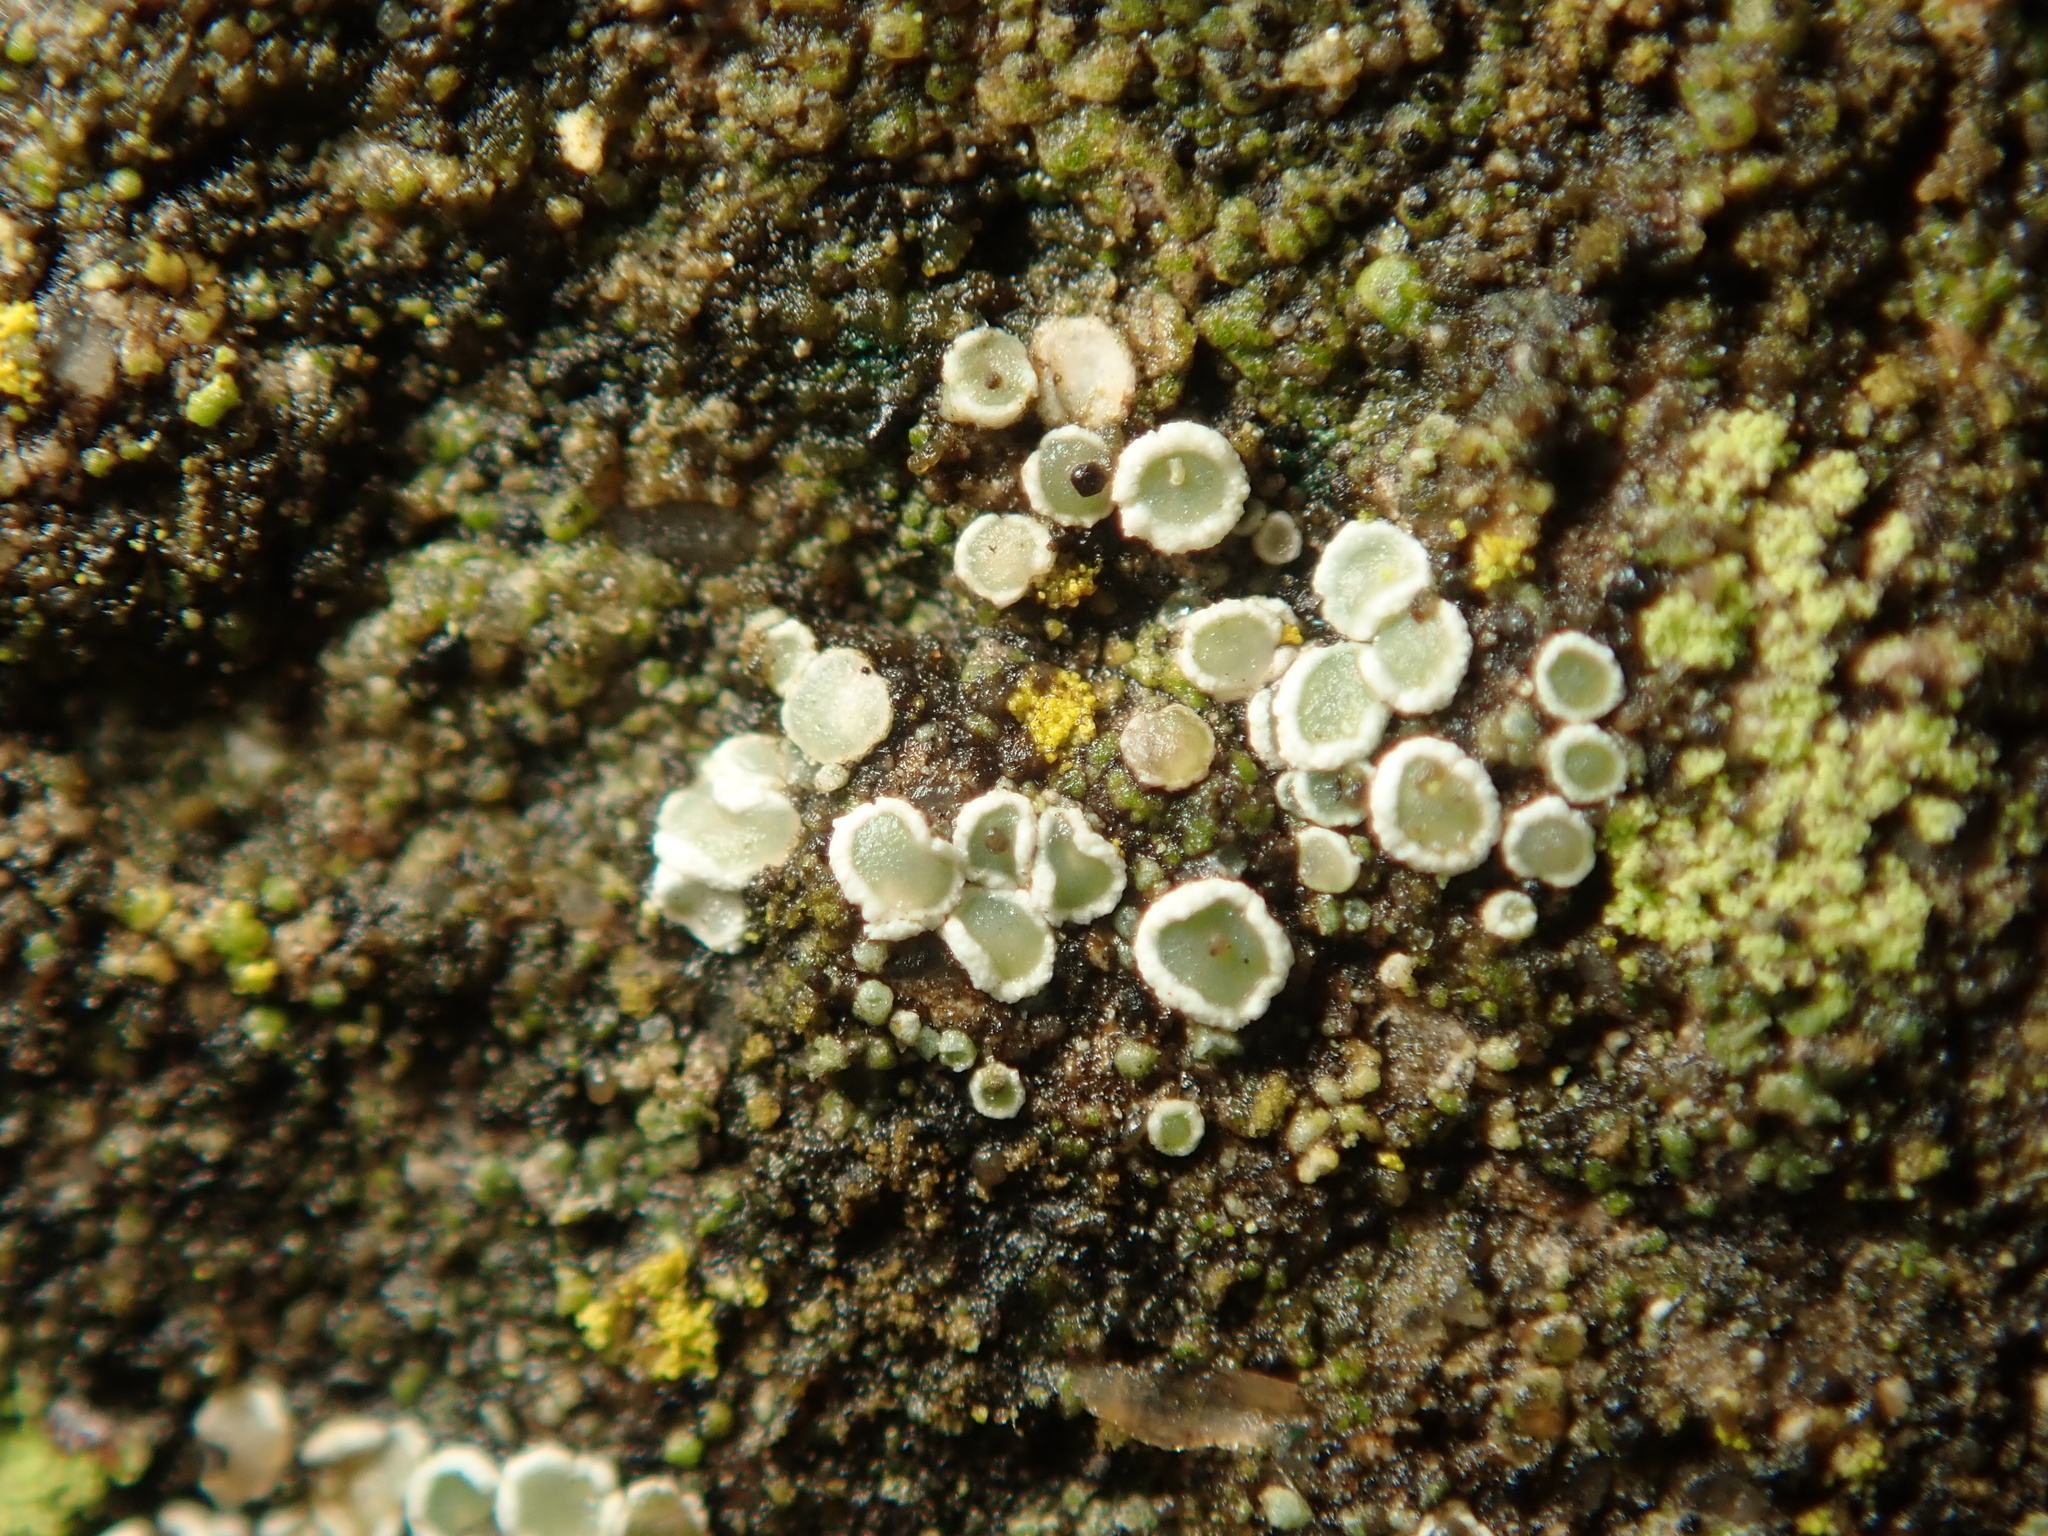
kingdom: Fungi
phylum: Ascomycota
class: Lecanoromycetes
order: Lecanorales
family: Lecanoraceae
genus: Myriolecis
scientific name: Myriolecis
